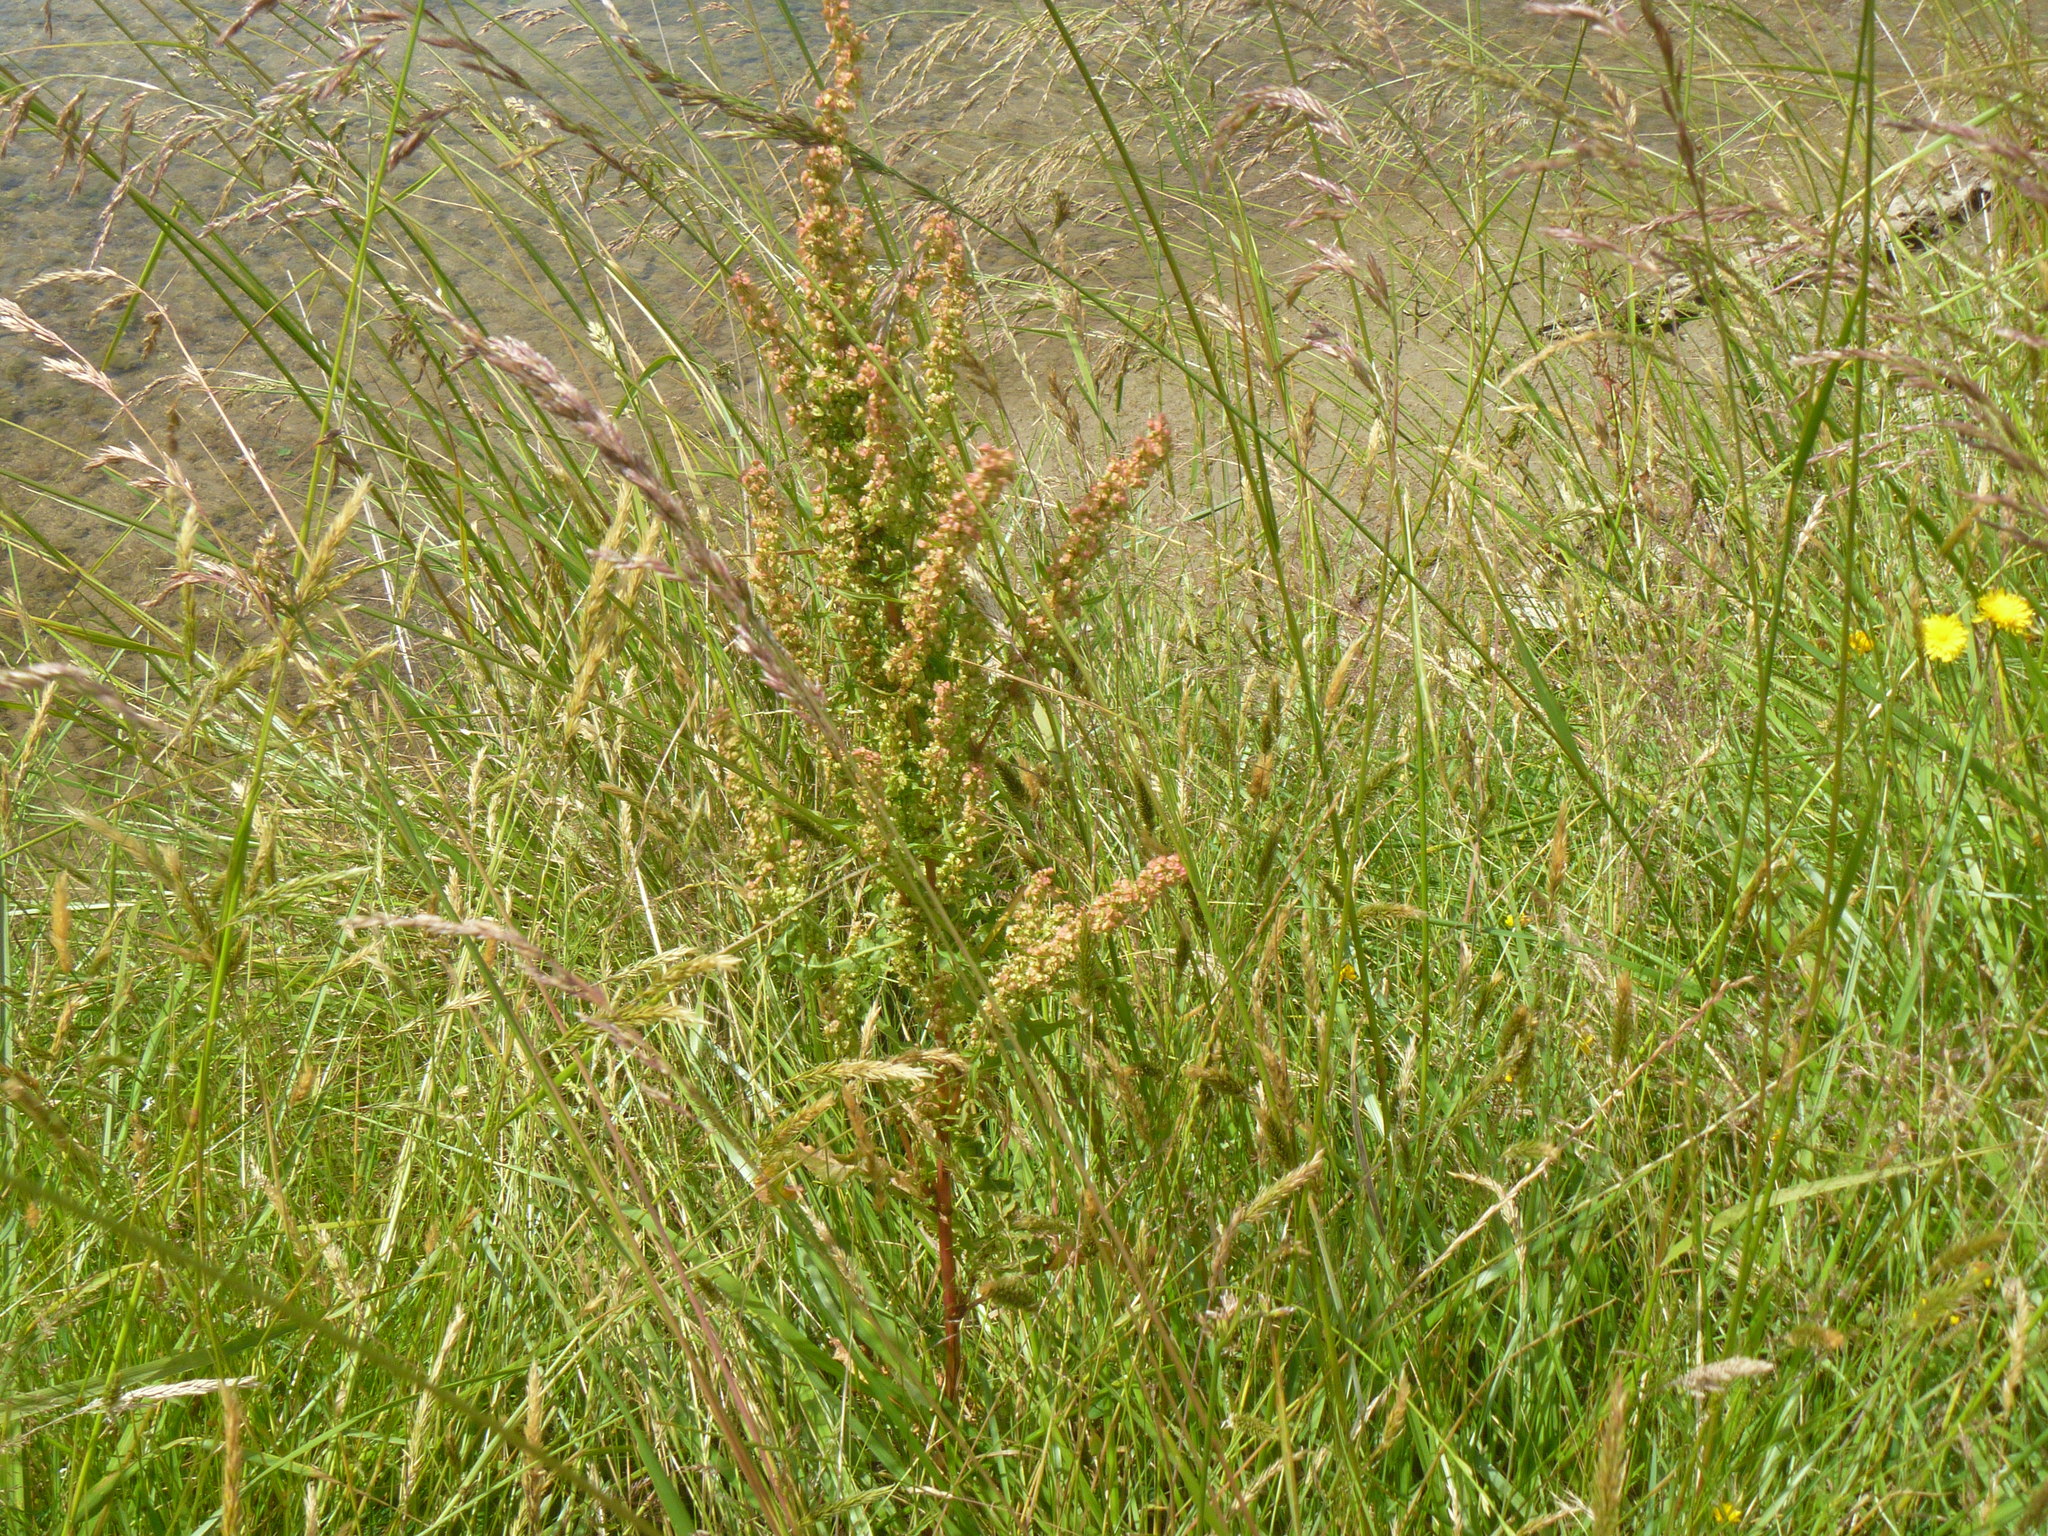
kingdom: Plantae
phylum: Tracheophyta
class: Magnoliopsida
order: Caryophyllales
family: Polygonaceae
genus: Rumex
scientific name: Rumex obtusifolius
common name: Bitter dock
